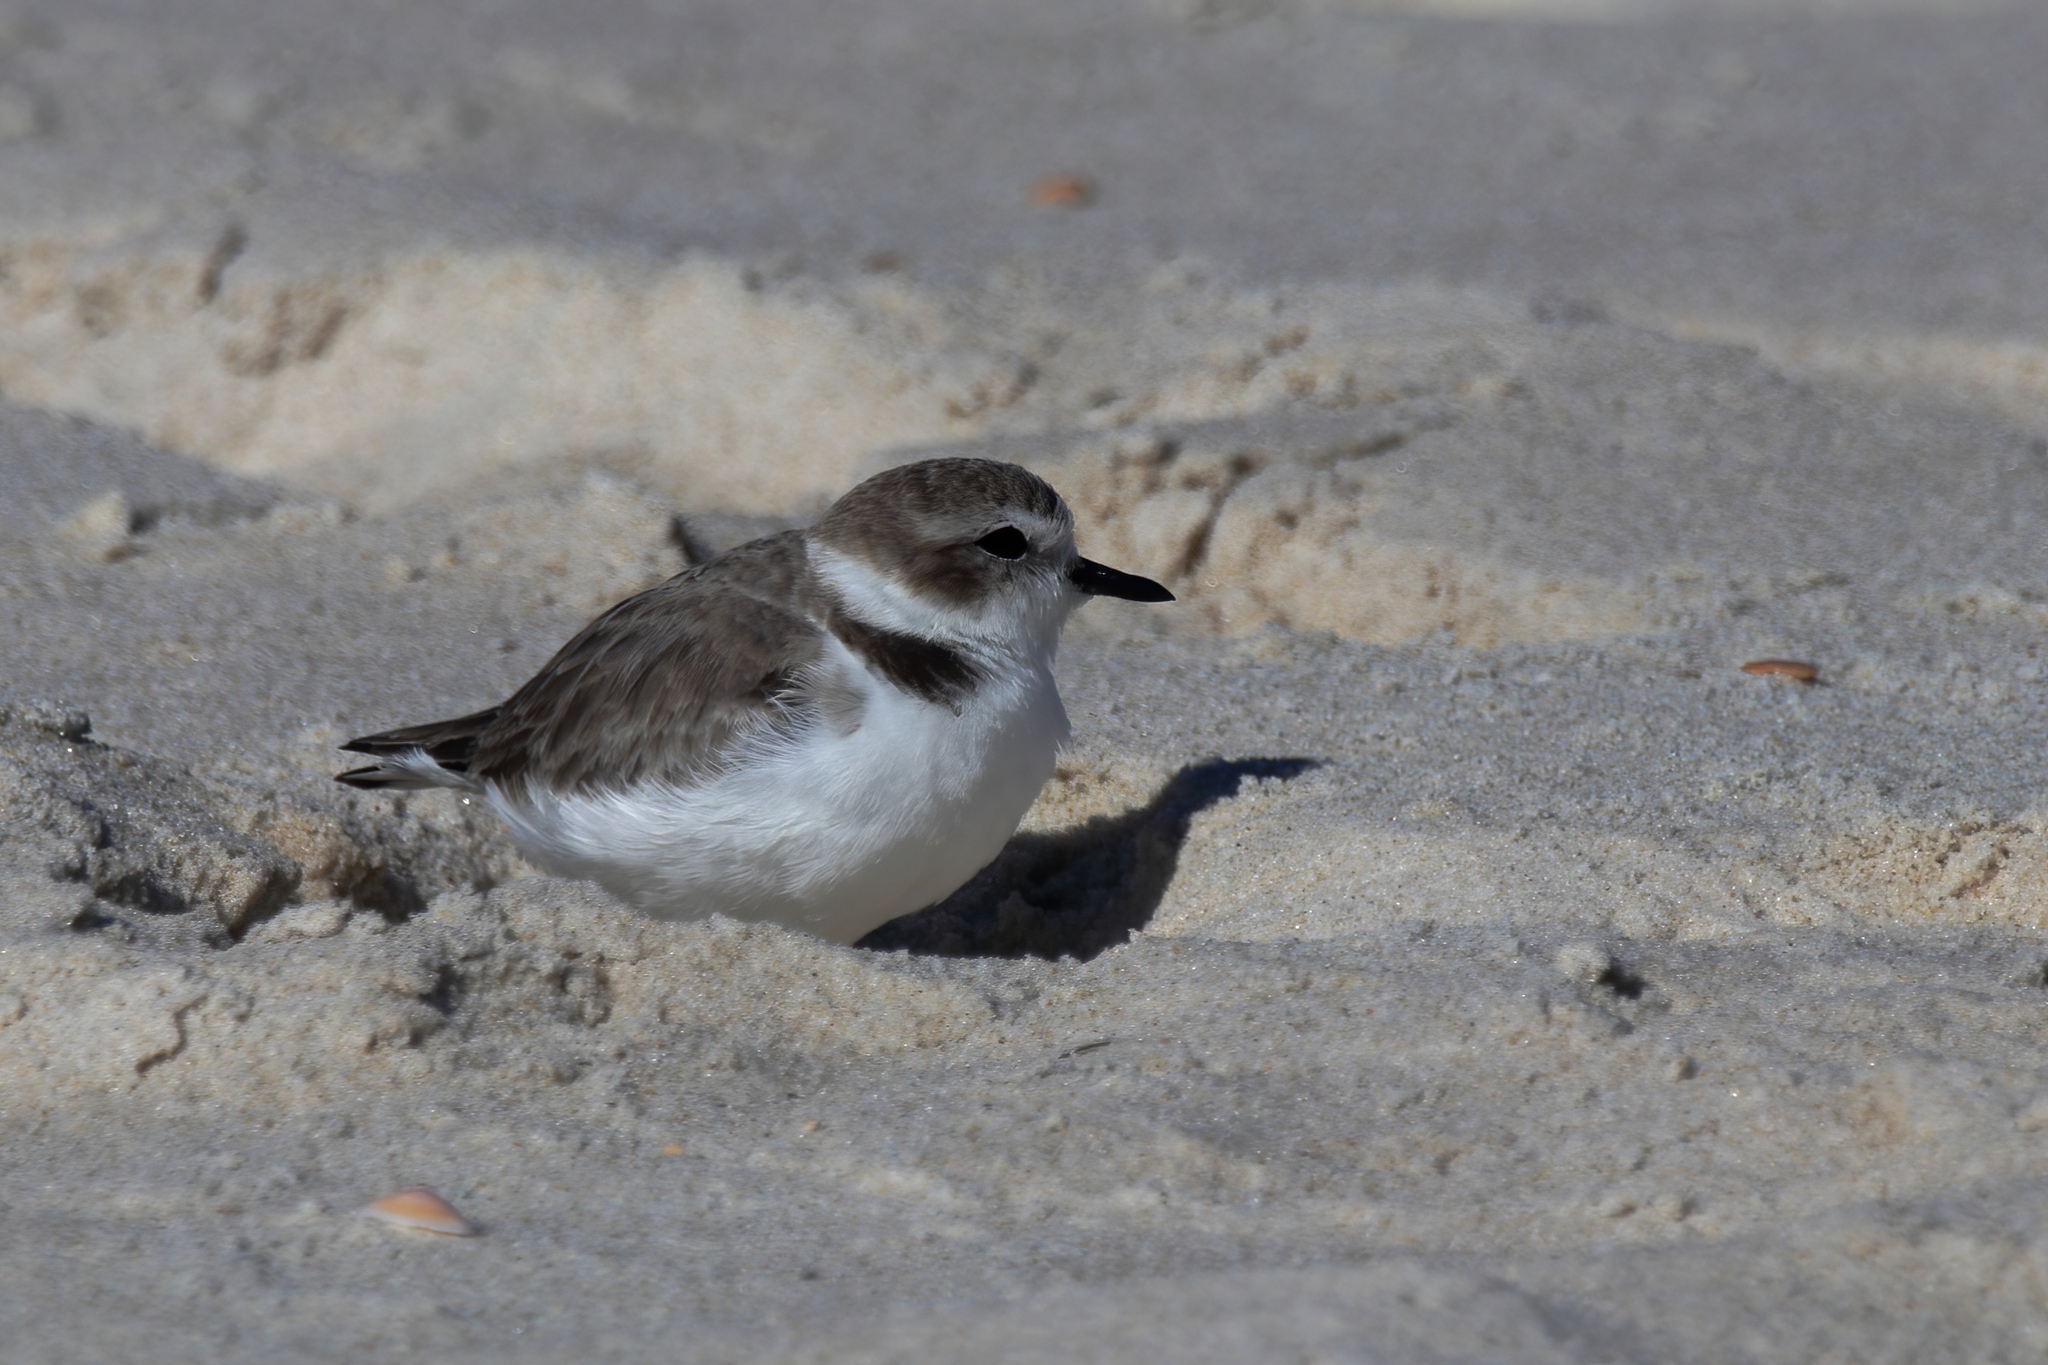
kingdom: Animalia
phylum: Chordata
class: Aves
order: Charadriiformes
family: Charadriidae
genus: Anarhynchus
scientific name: Anarhynchus
